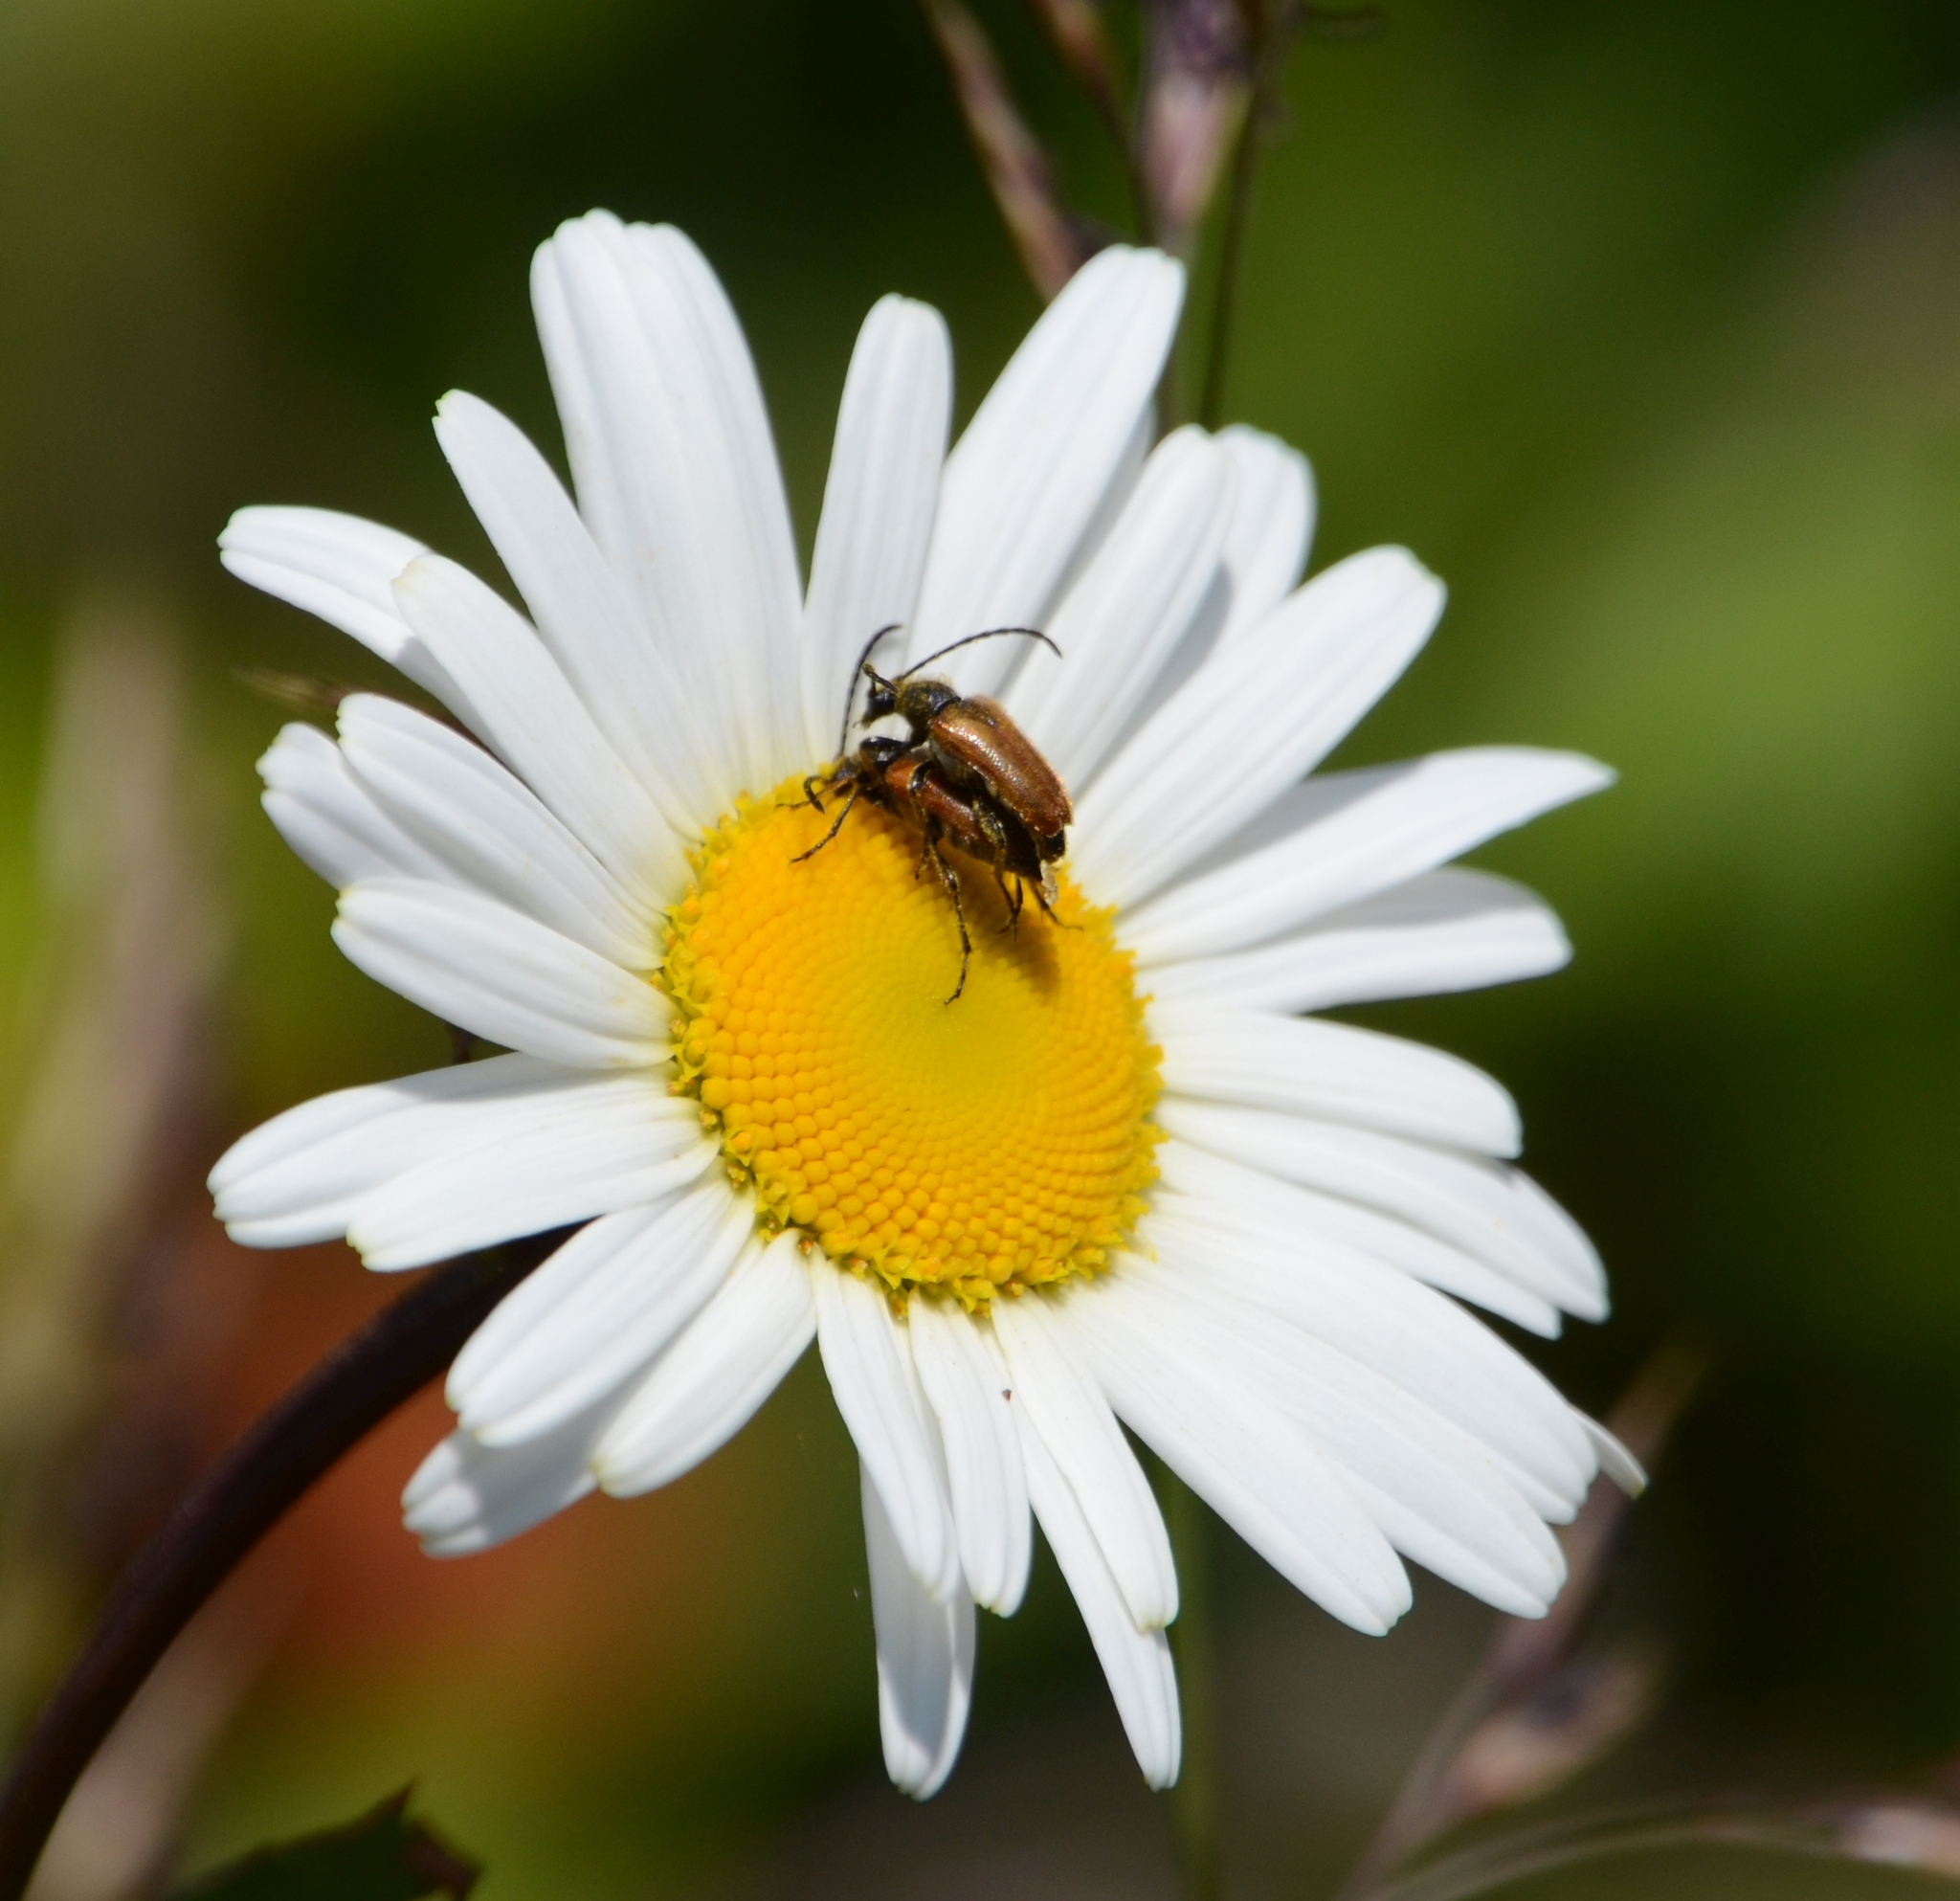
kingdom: Animalia
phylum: Arthropoda
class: Insecta
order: Coleoptera
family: Cerambycidae
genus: Pseudovadonia
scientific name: Pseudovadonia livida
